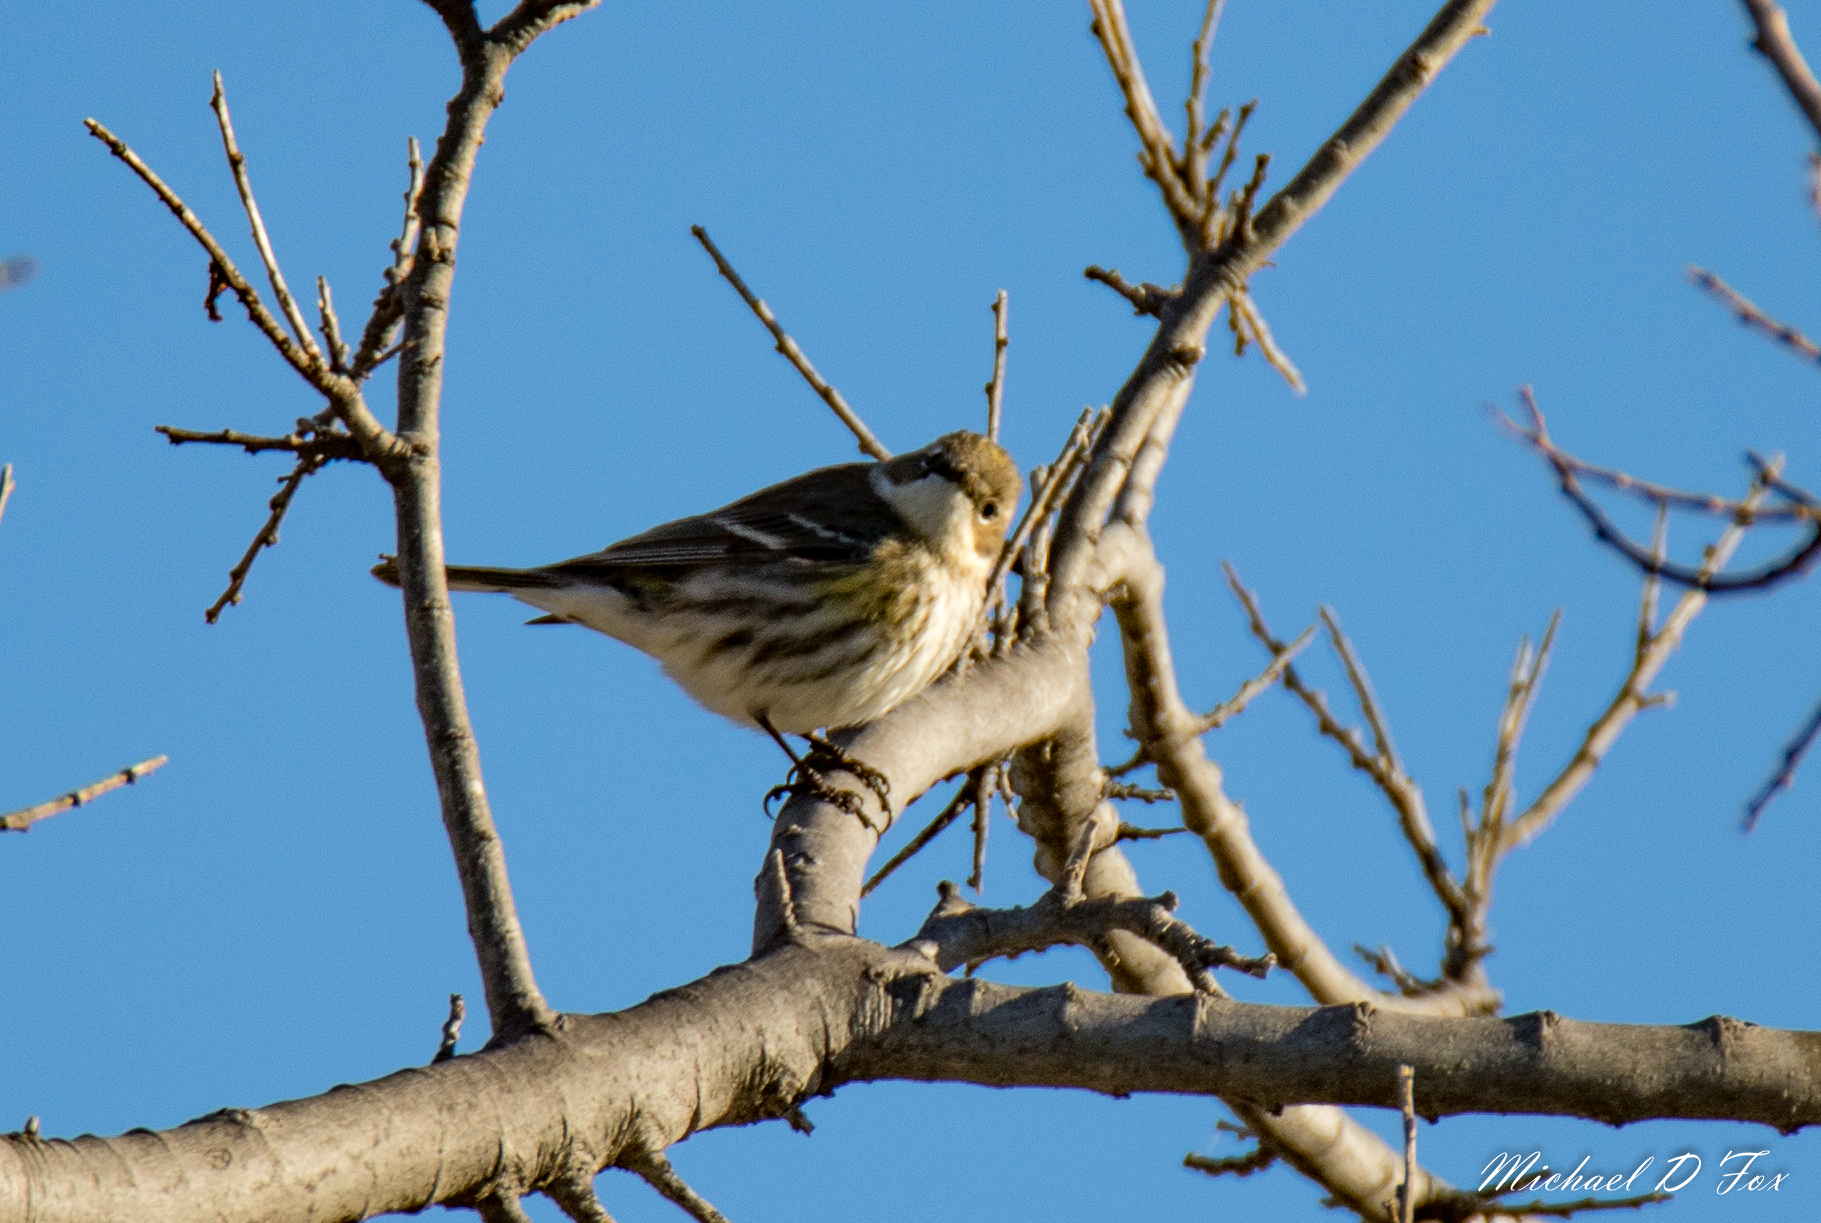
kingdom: Animalia
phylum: Chordata
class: Aves
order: Passeriformes
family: Parulidae
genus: Setophaga
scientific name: Setophaga coronata
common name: Myrtle warbler
